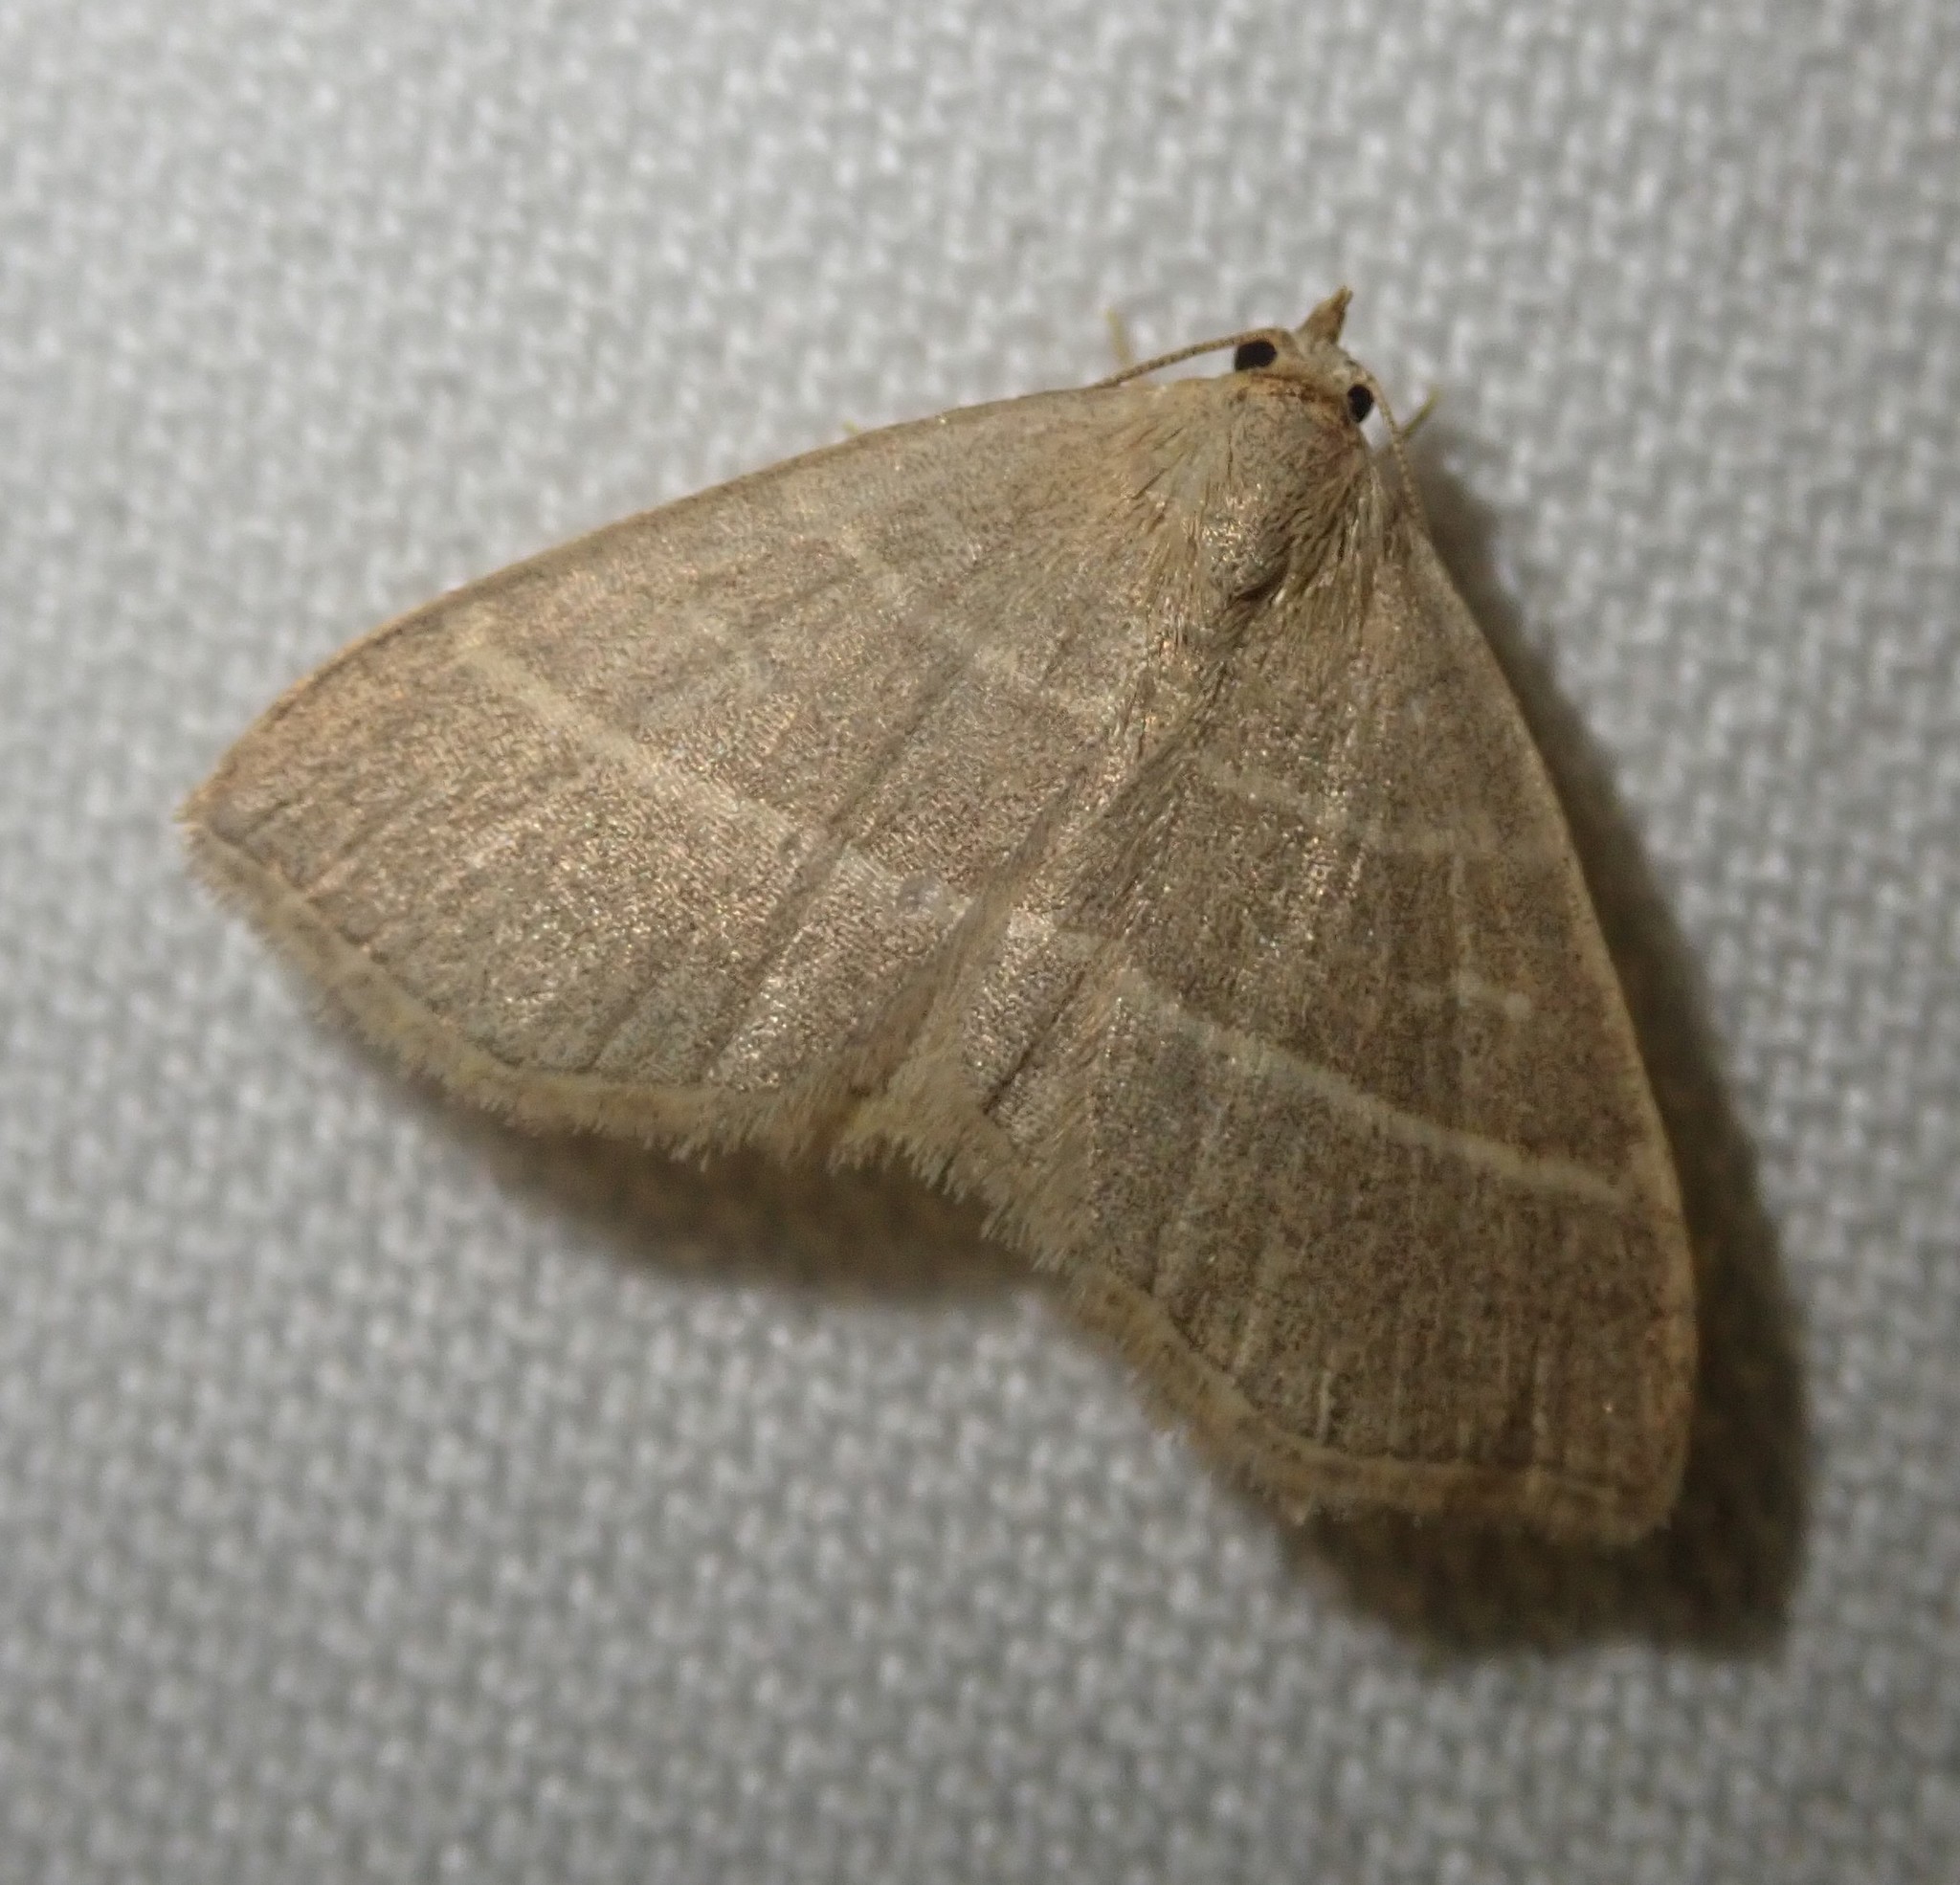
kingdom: Animalia
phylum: Arthropoda
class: Insecta
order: Lepidoptera
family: Erebidae
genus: Trisateles
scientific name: Trisateles emortualis
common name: Olive crescent
